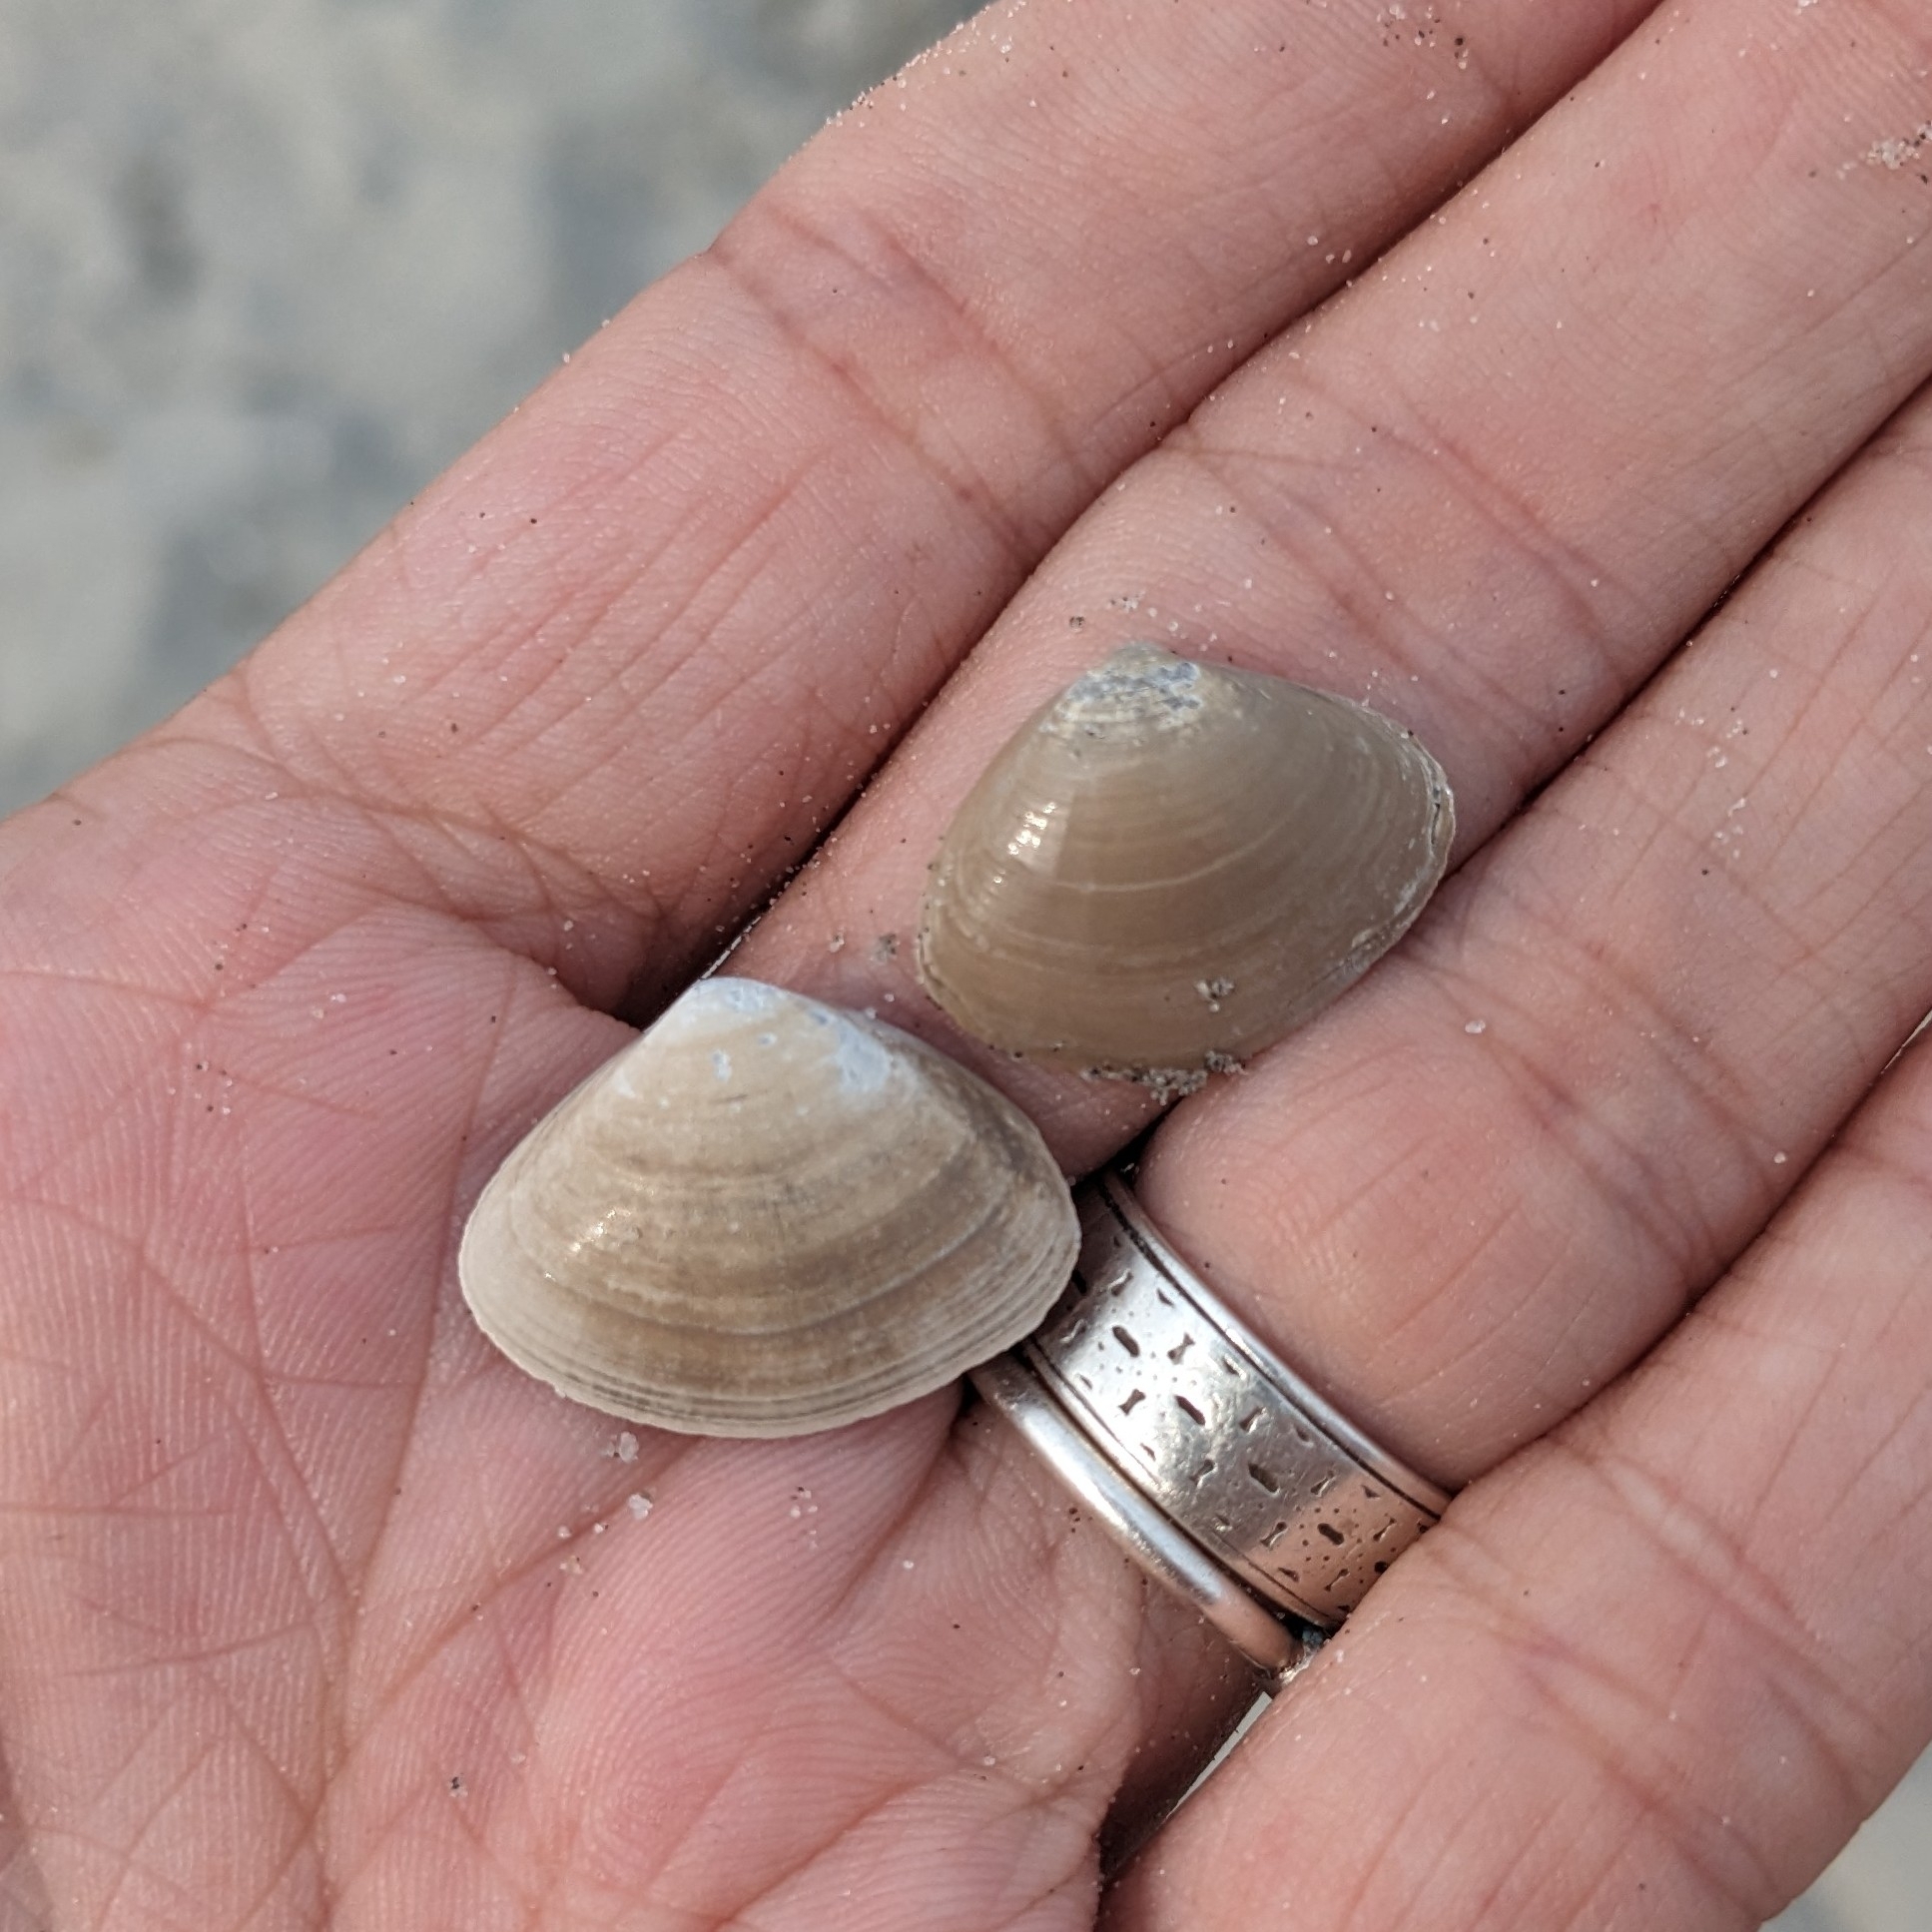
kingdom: Animalia
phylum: Mollusca
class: Bivalvia
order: Venerida
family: Mactridae
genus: Spisula
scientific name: Spisula solidissima
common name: Atlantic surf clam
